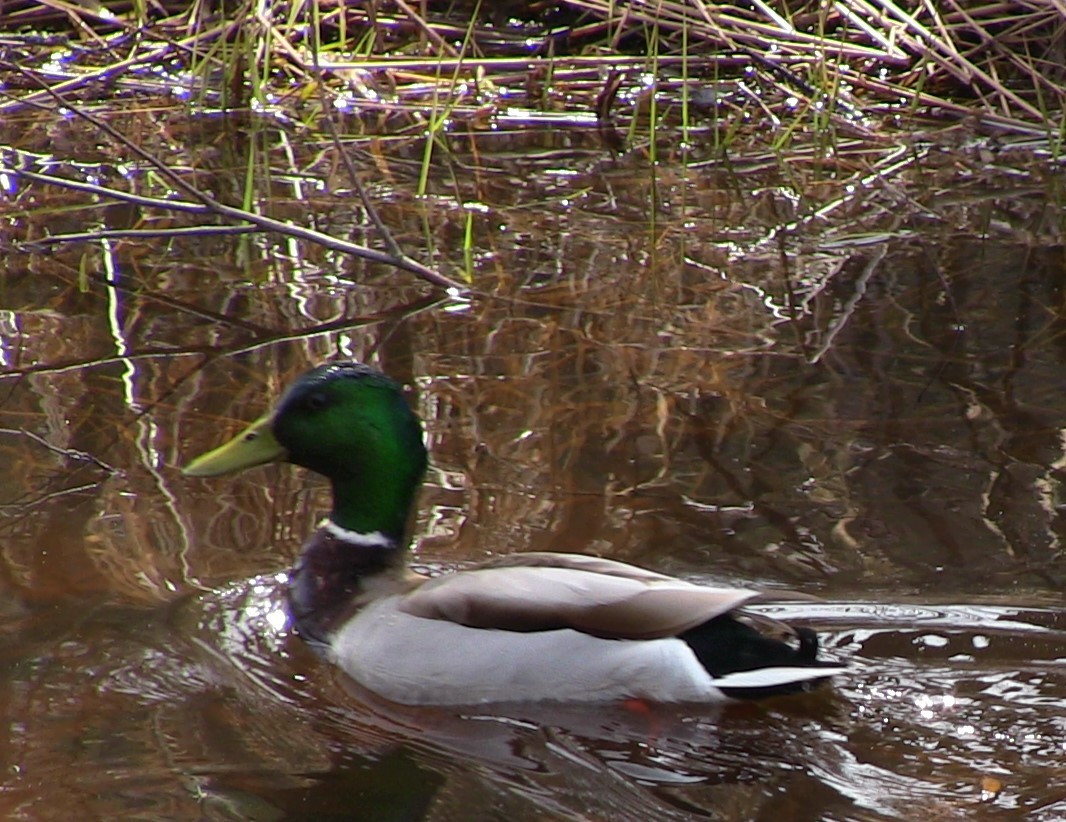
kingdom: Animalia
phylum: Chordata
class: Aves
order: Anseriformes
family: Anatidae
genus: Anas
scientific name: Anas platyrhynchos
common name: Mallard
